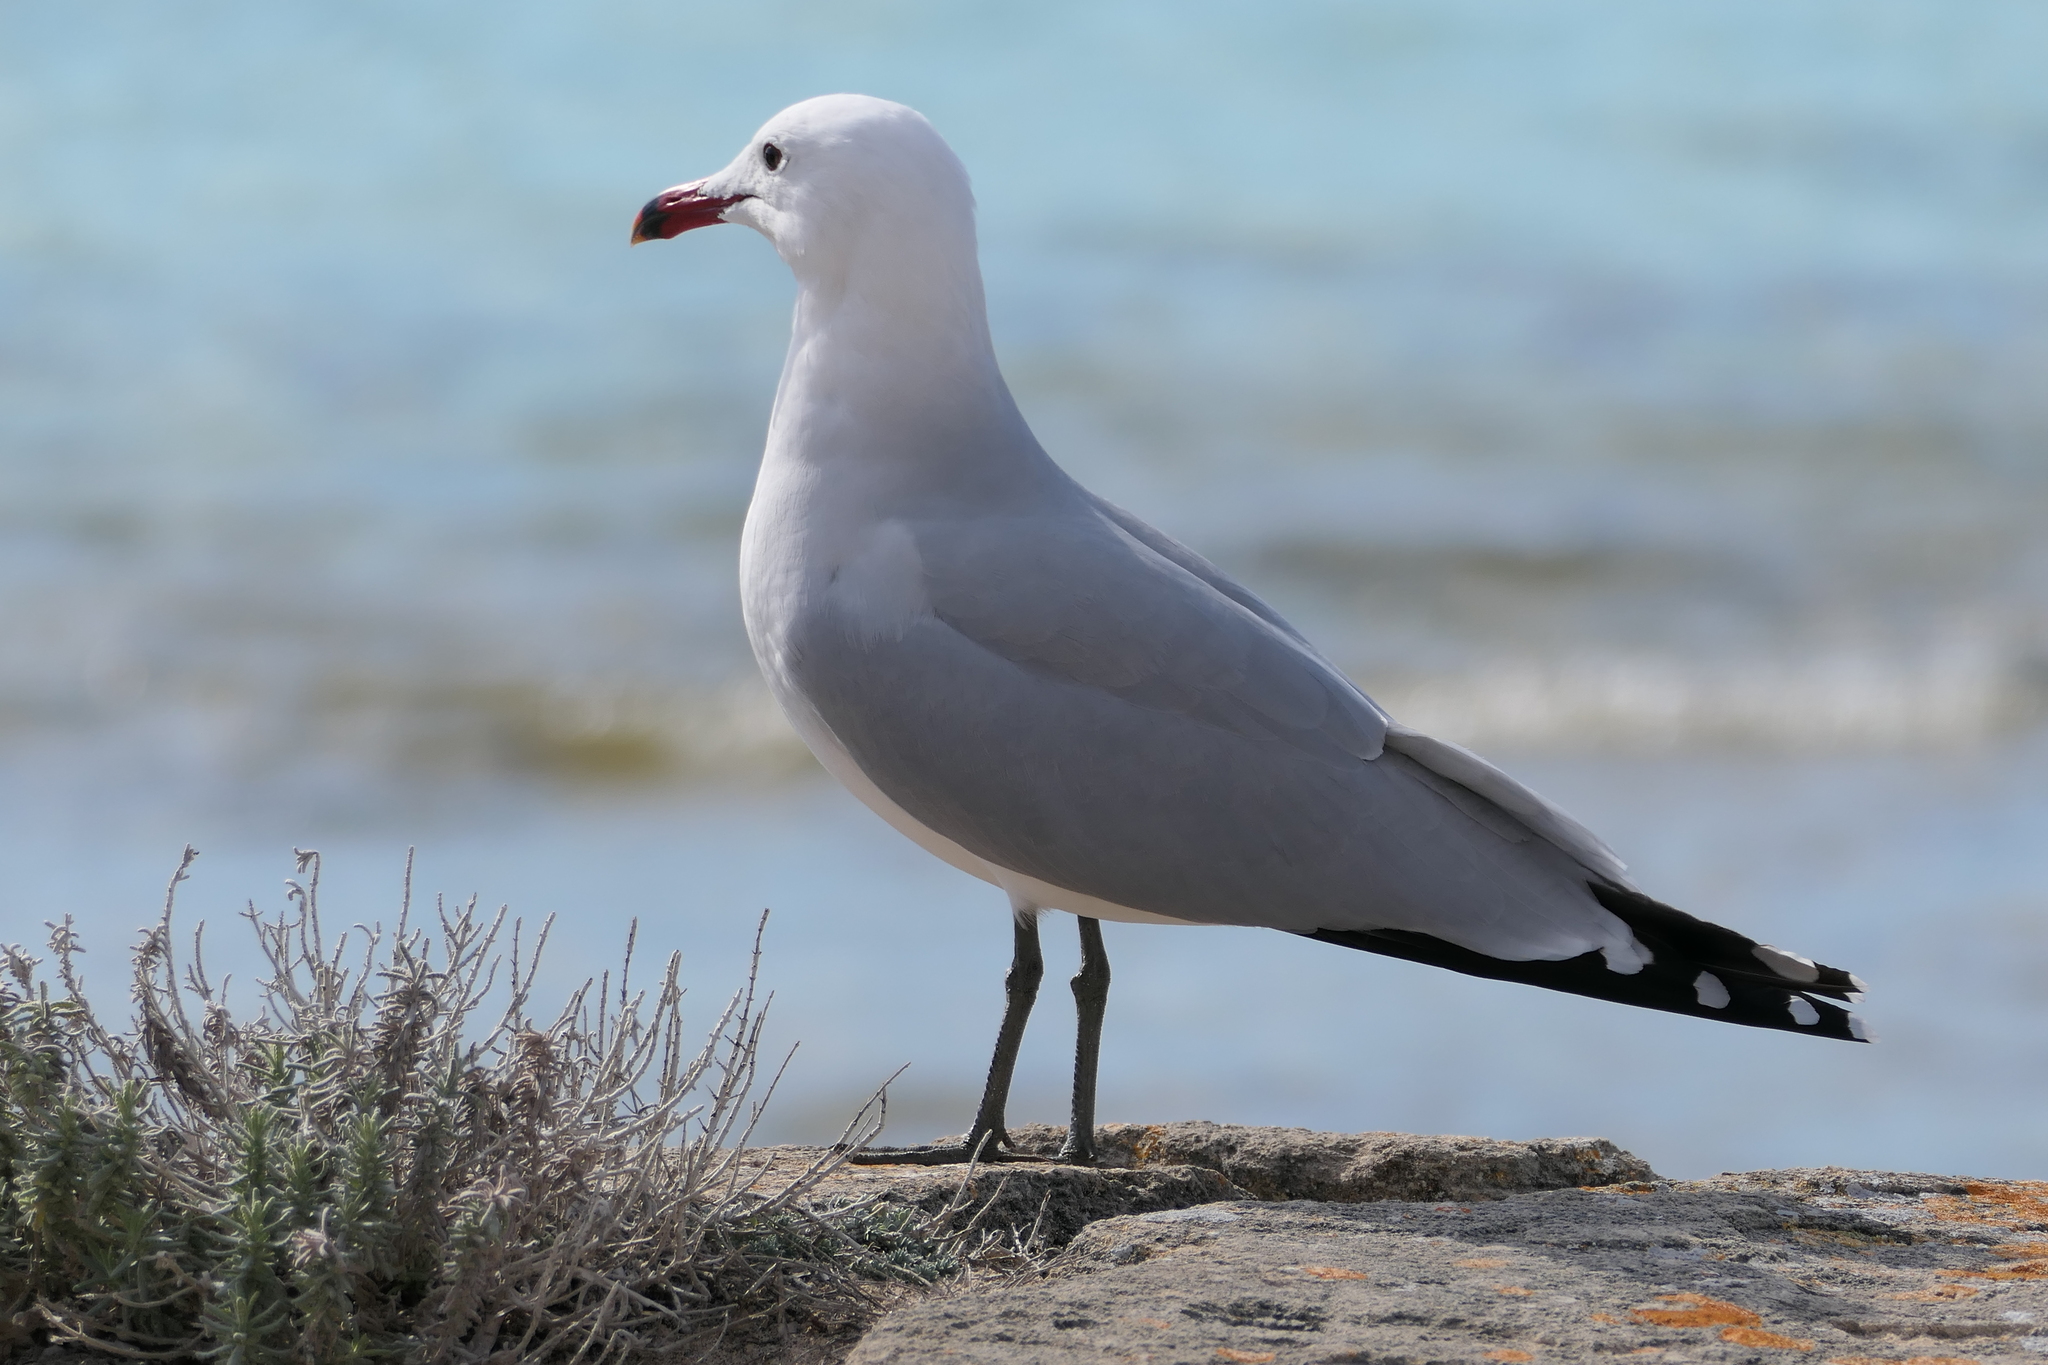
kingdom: Animalia
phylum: Chordata
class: Aves
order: Charadriiformes
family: Laridae
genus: Ichthyaetus
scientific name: Ichthyaetus audouinii
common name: Audouin's gull
